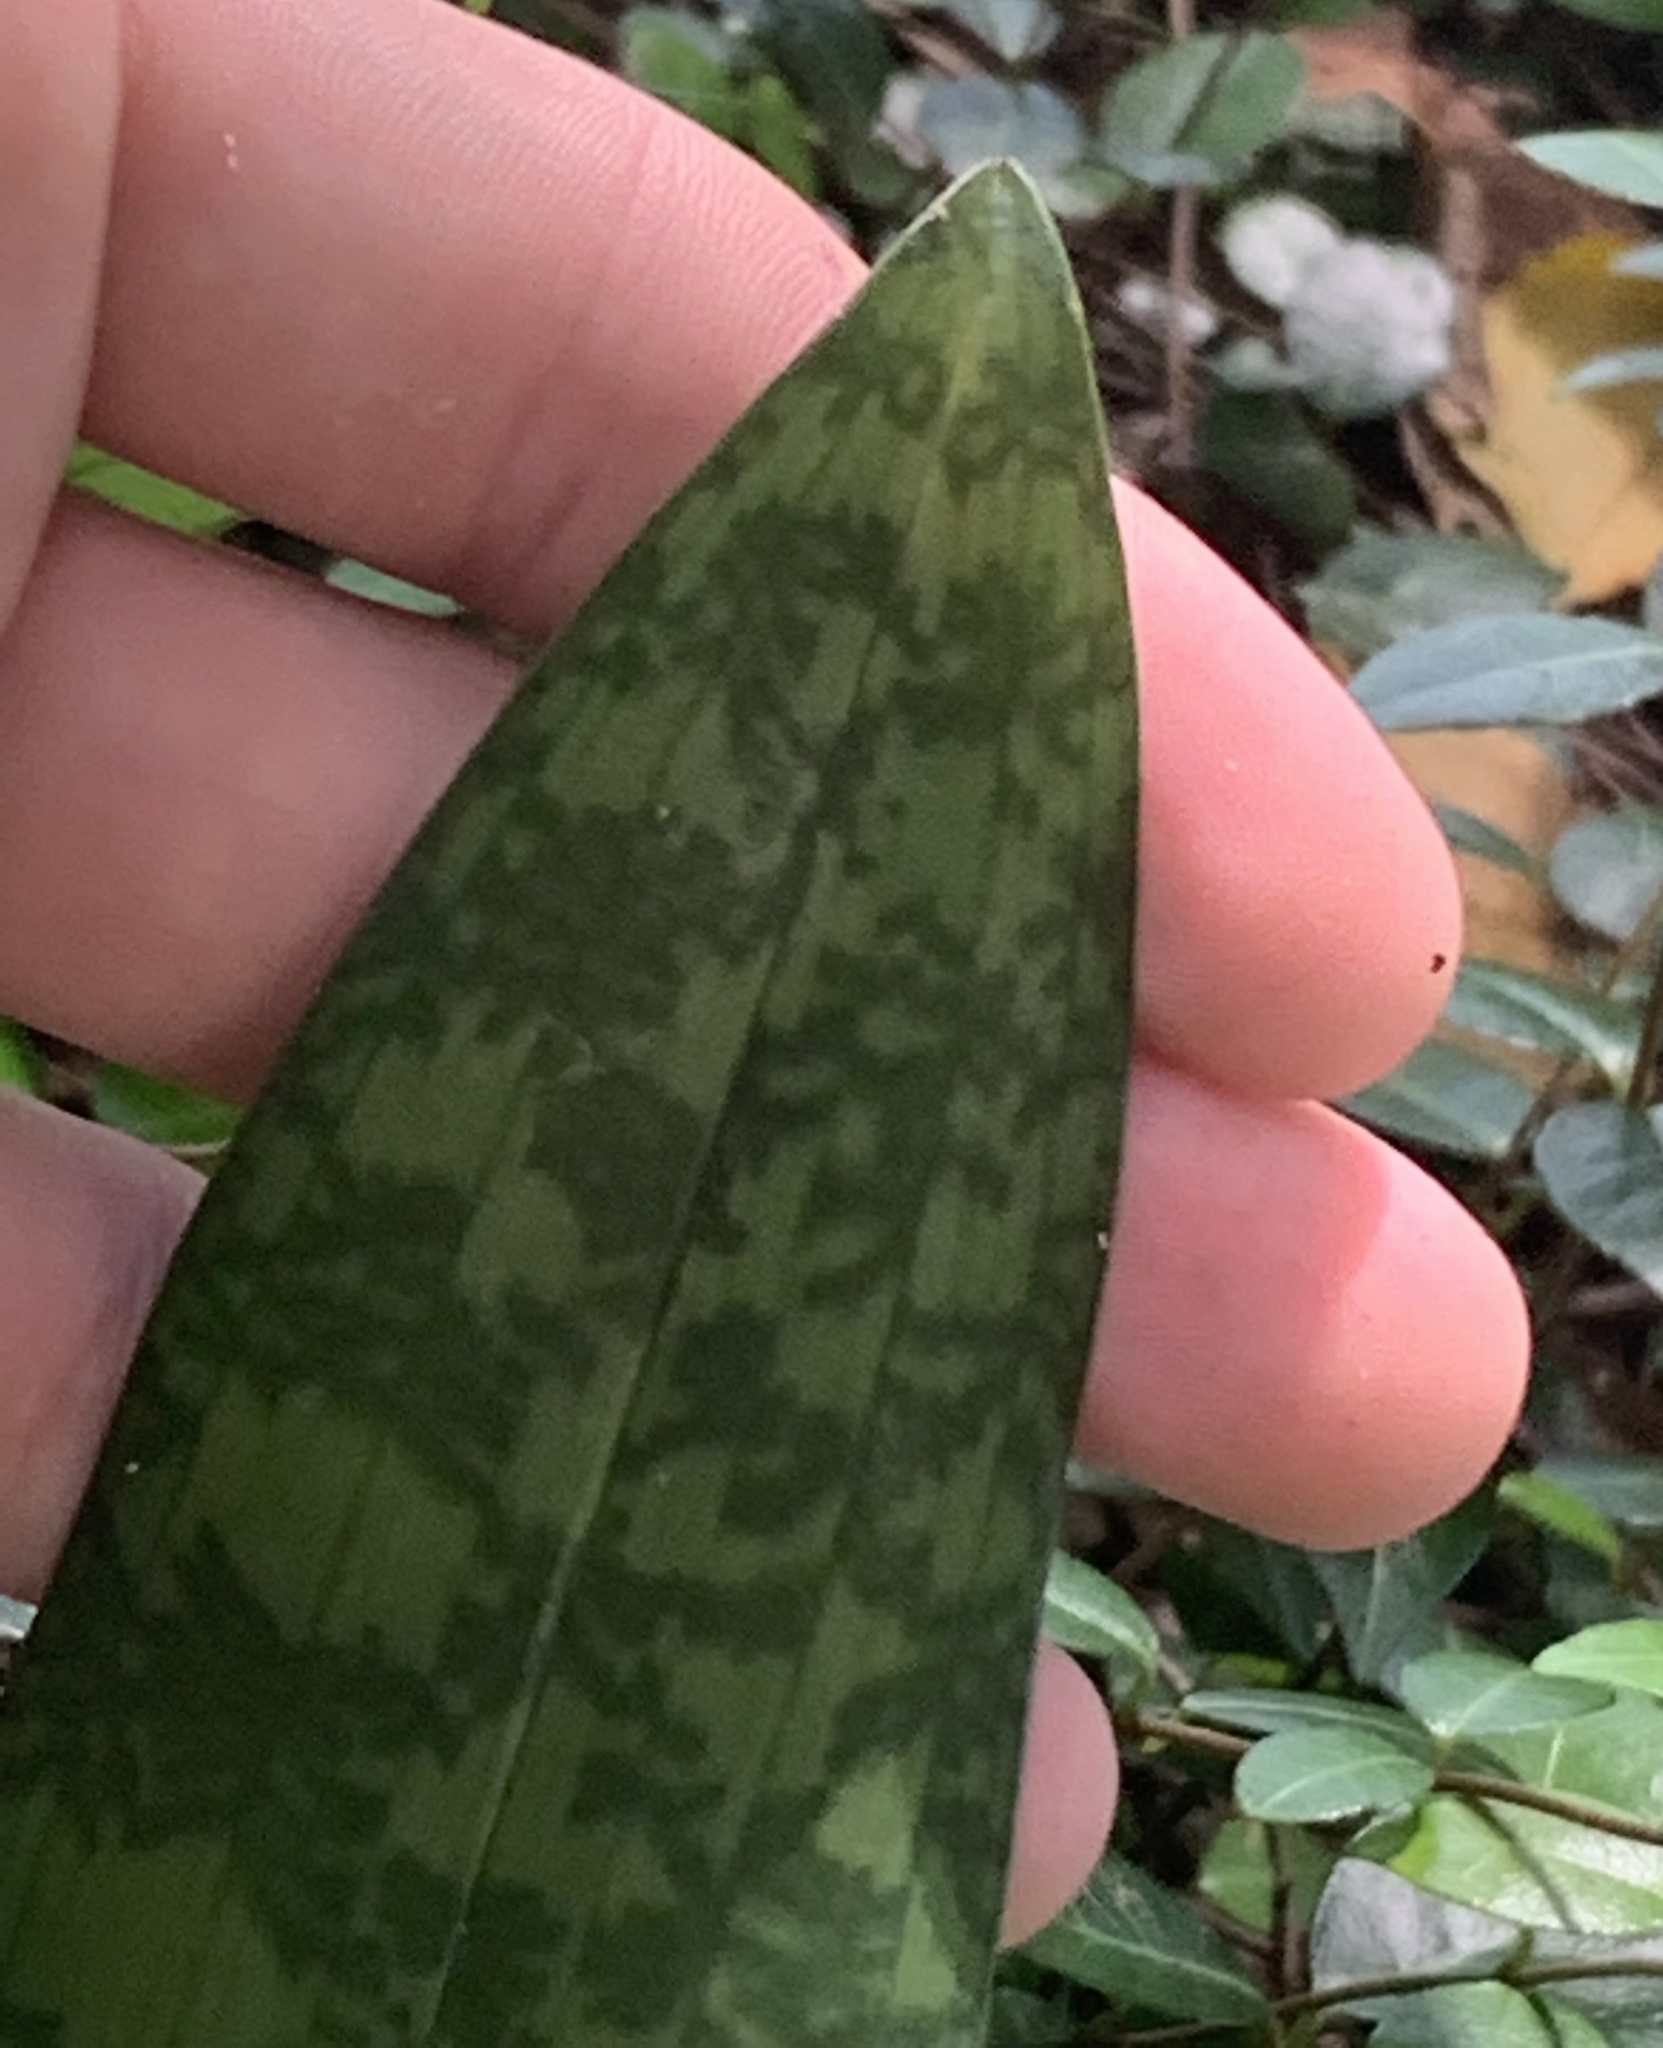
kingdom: Plantae
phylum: Tracheophyta
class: Liliopsida
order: Asparagales
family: Orchidaceae
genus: Eulophia
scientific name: Eulophia maculata
